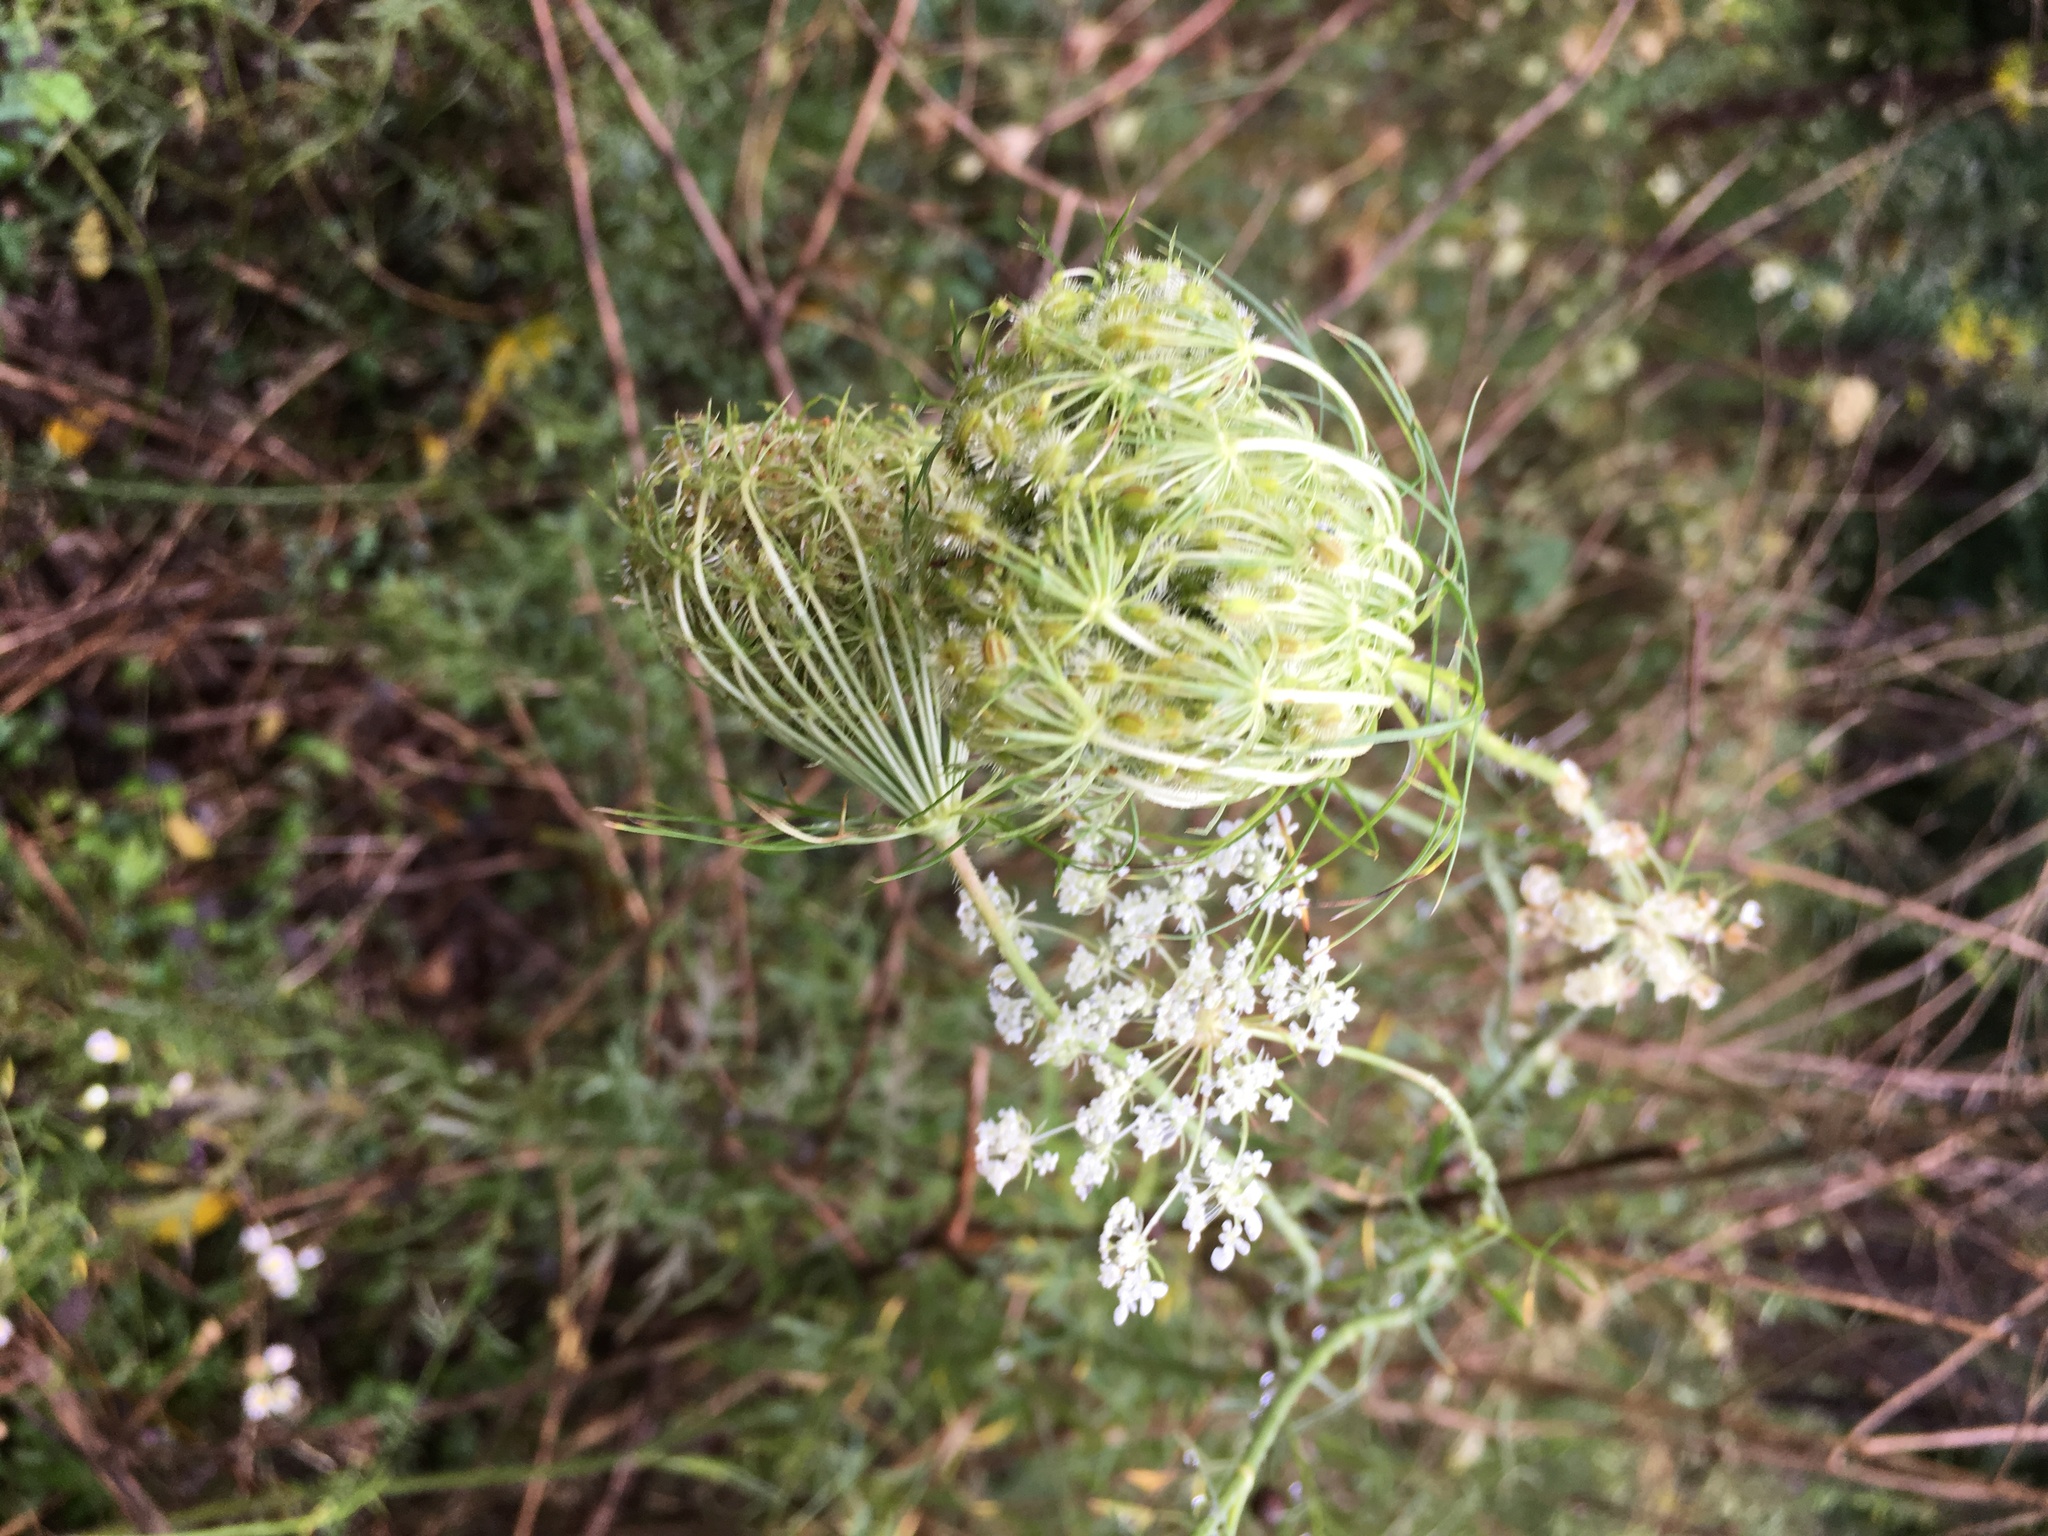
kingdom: Plantae
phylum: Tracheophyta
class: Magnoliopsida
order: Apiales
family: Apiaceae
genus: Daucus
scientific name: Daucus carota
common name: Wild carrot
